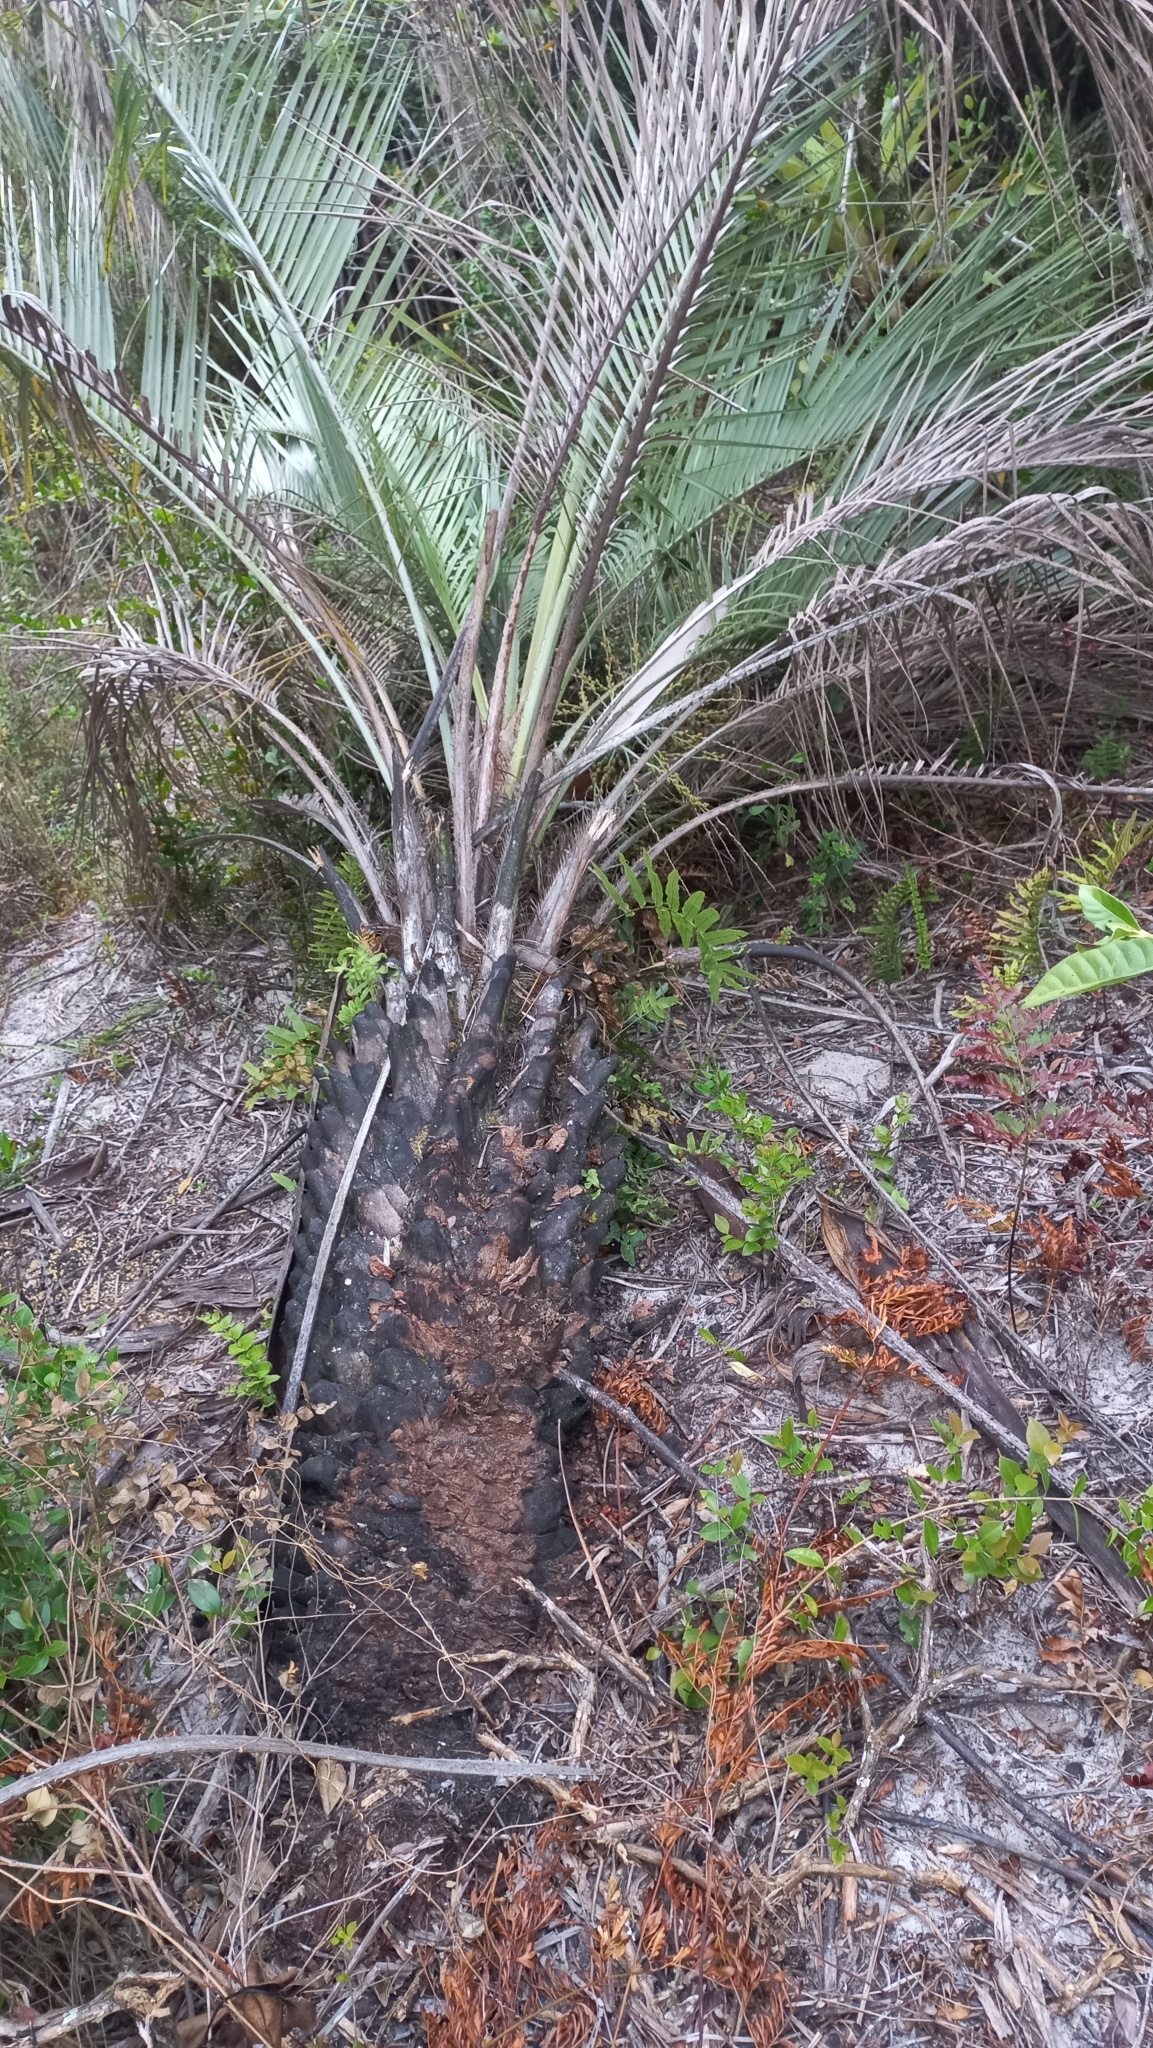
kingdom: Plantae
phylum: Tracheophyta
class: Liliopsida
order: Arecales
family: Arecaceae
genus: Butia
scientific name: Butia catarinensis
